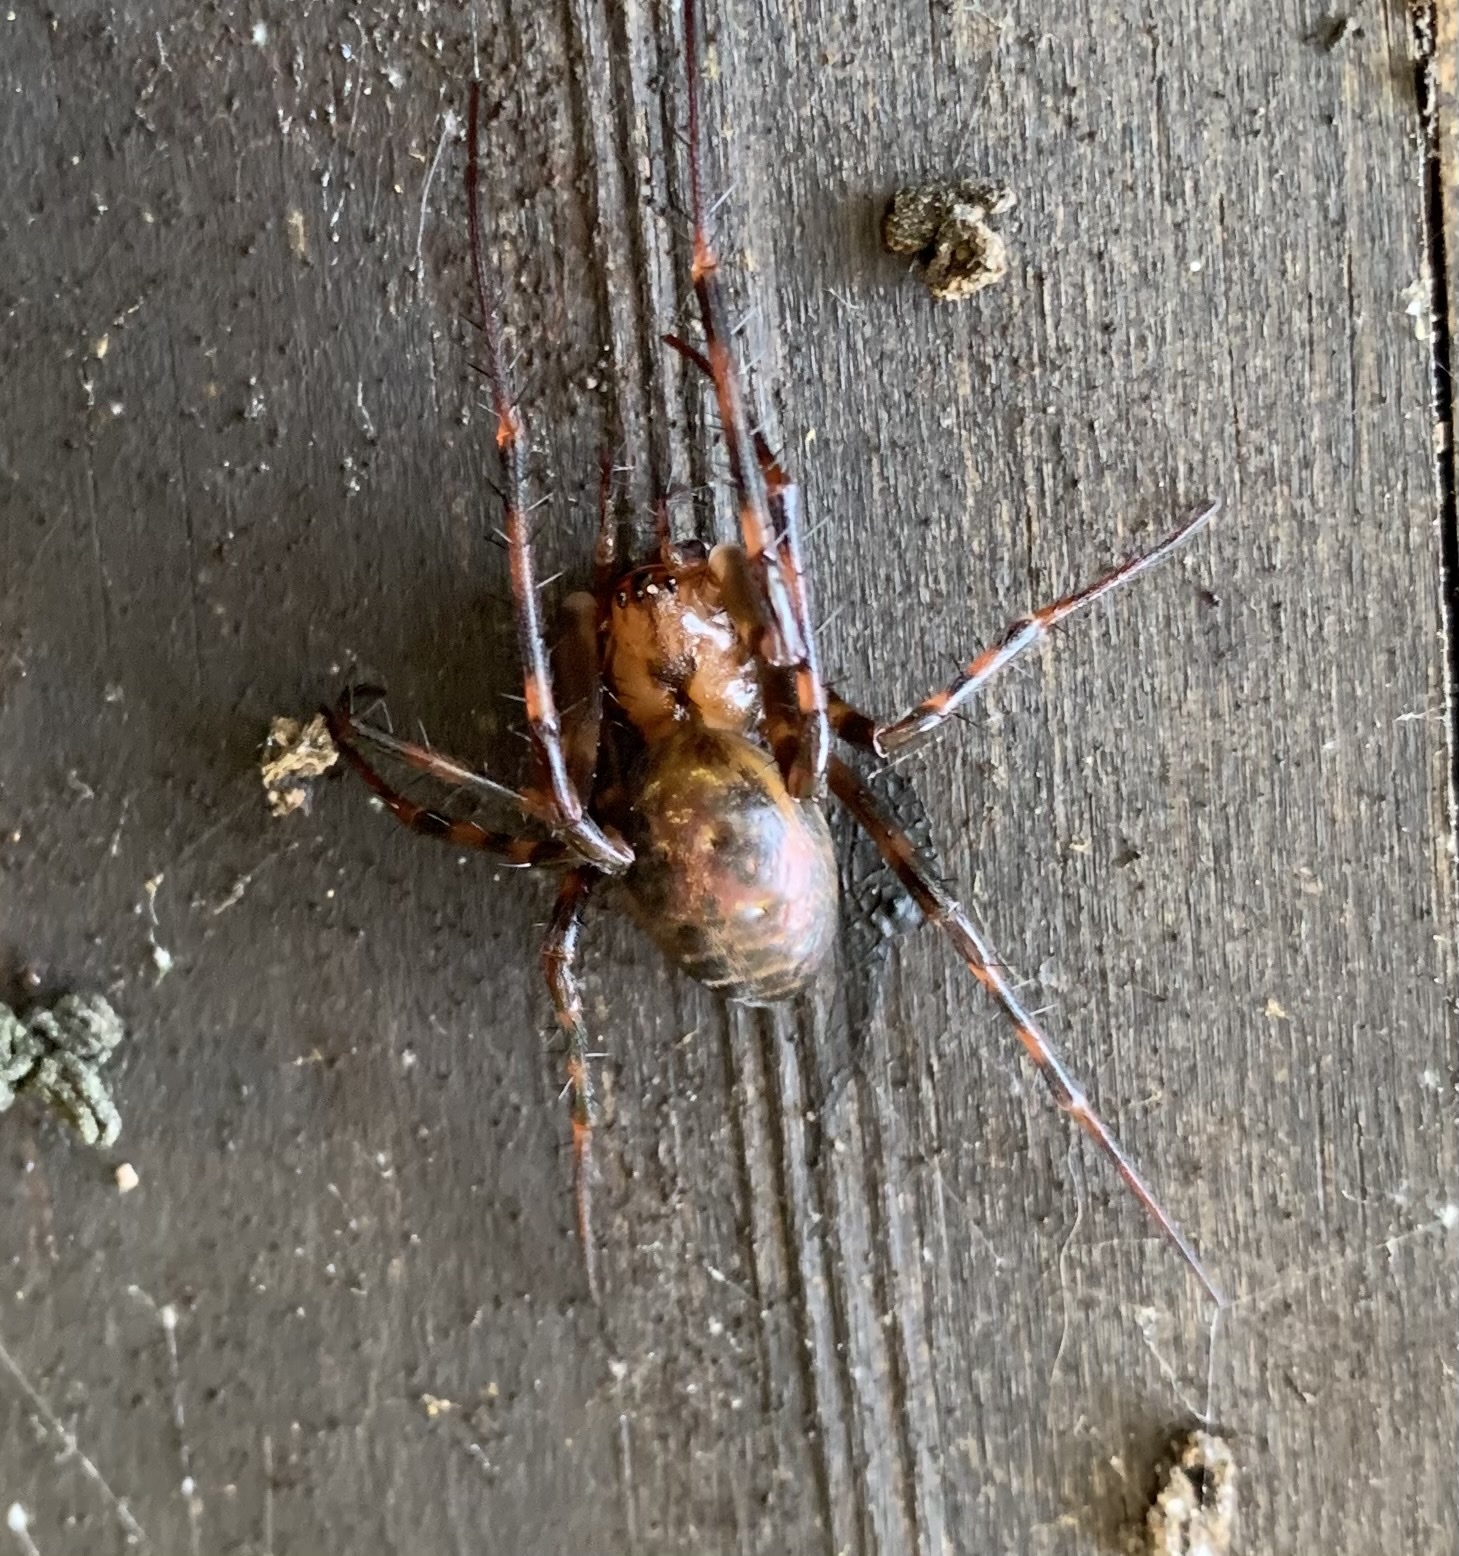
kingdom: Animalia
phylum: Arthropoda
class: Arachnida
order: Araneae
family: Tetragnathidae
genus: Meta
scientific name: Meta menardi
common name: Cave spider
